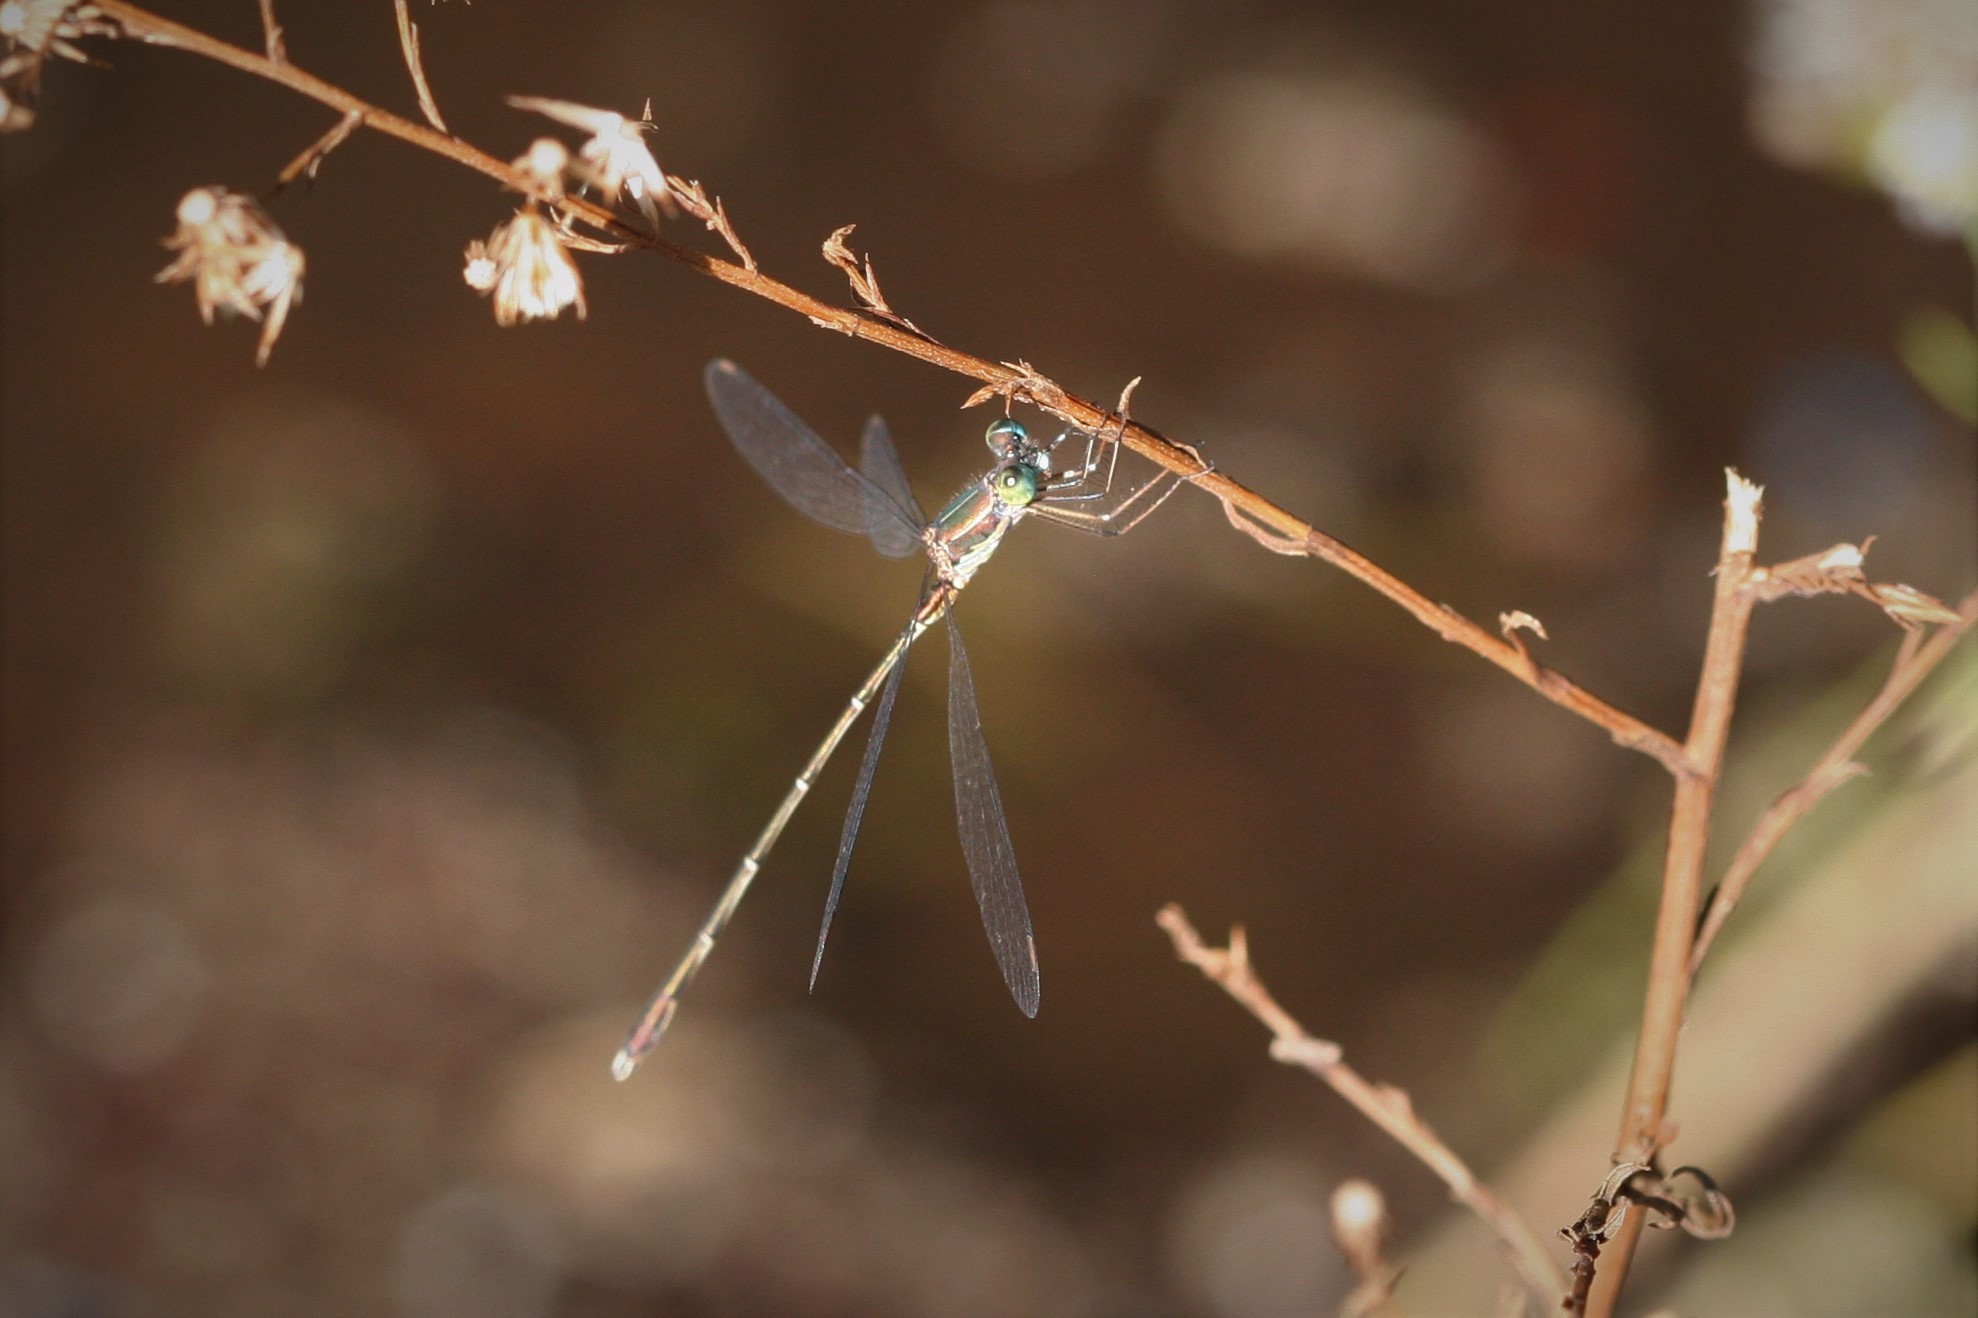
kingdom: Animalia
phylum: Arthropoda
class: Insecta
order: Odonata
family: Lestidae
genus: Chalcolestes
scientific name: Chalcolestes parvidens
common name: Eastern willow spreadwing
